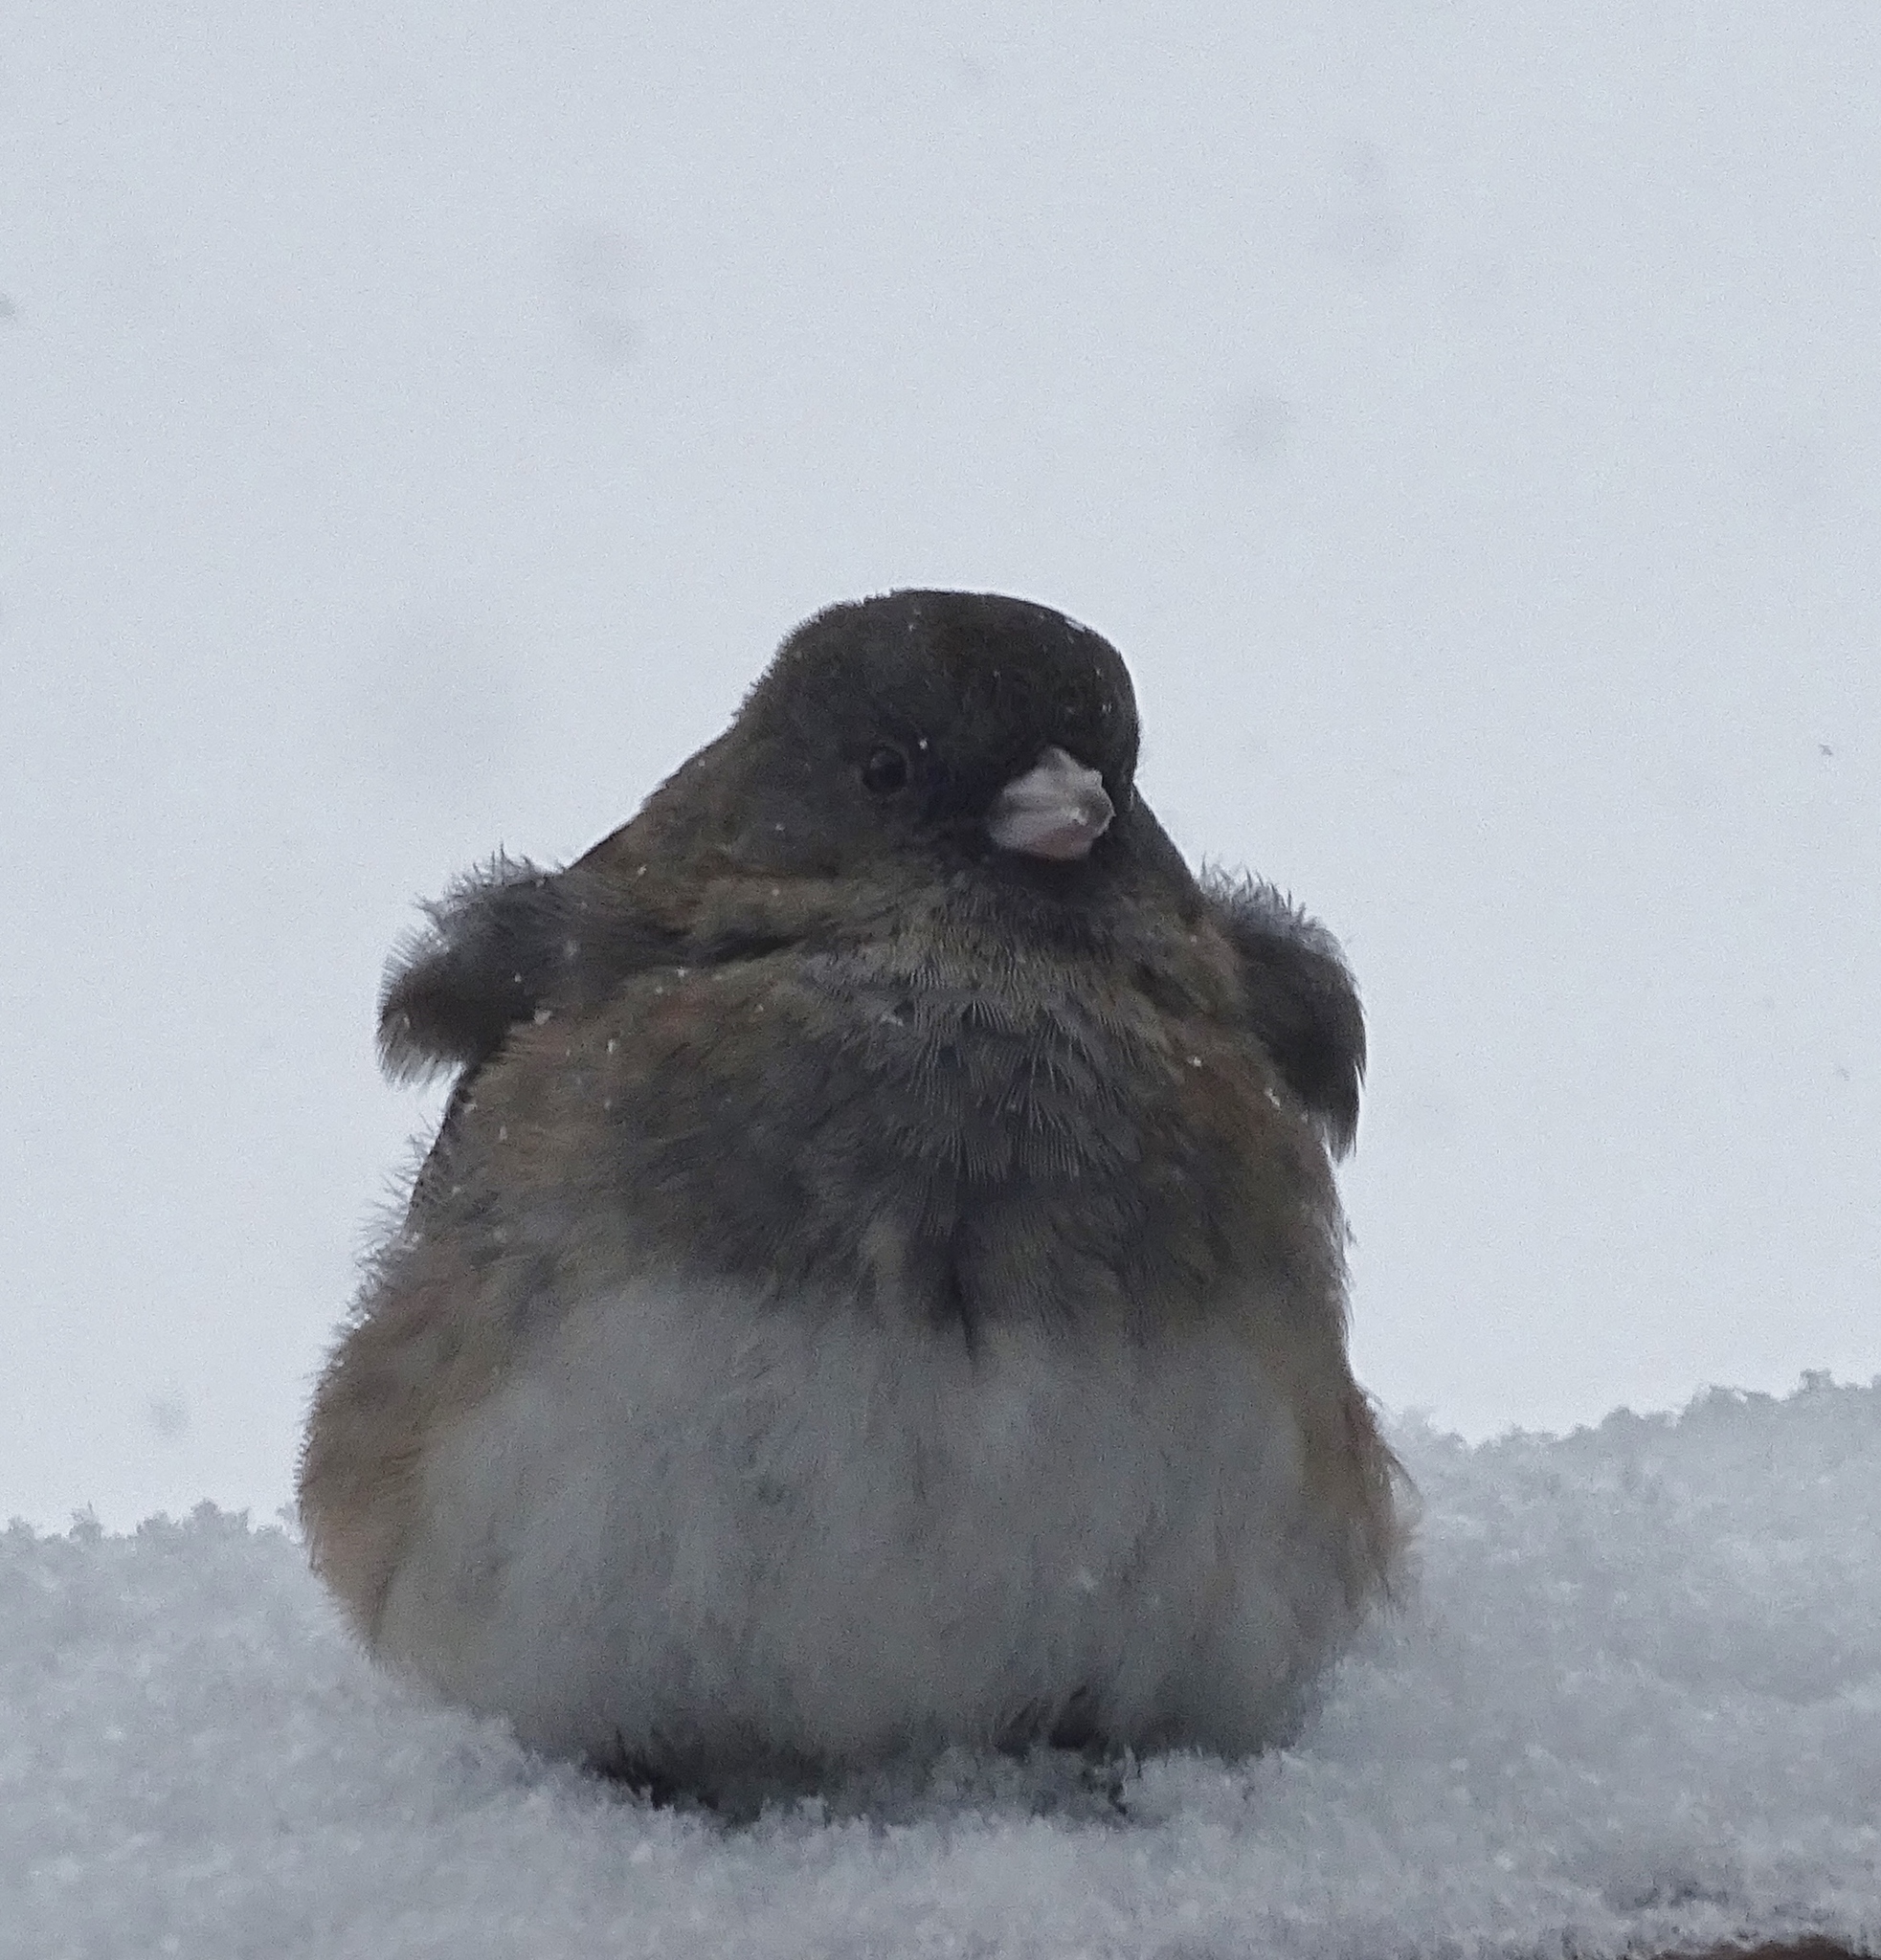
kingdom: Animalia
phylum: Chordata
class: Aves
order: Passeriformes
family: Passerellidae
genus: Junco
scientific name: Junco hyemalis
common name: Dark-eyed junco
